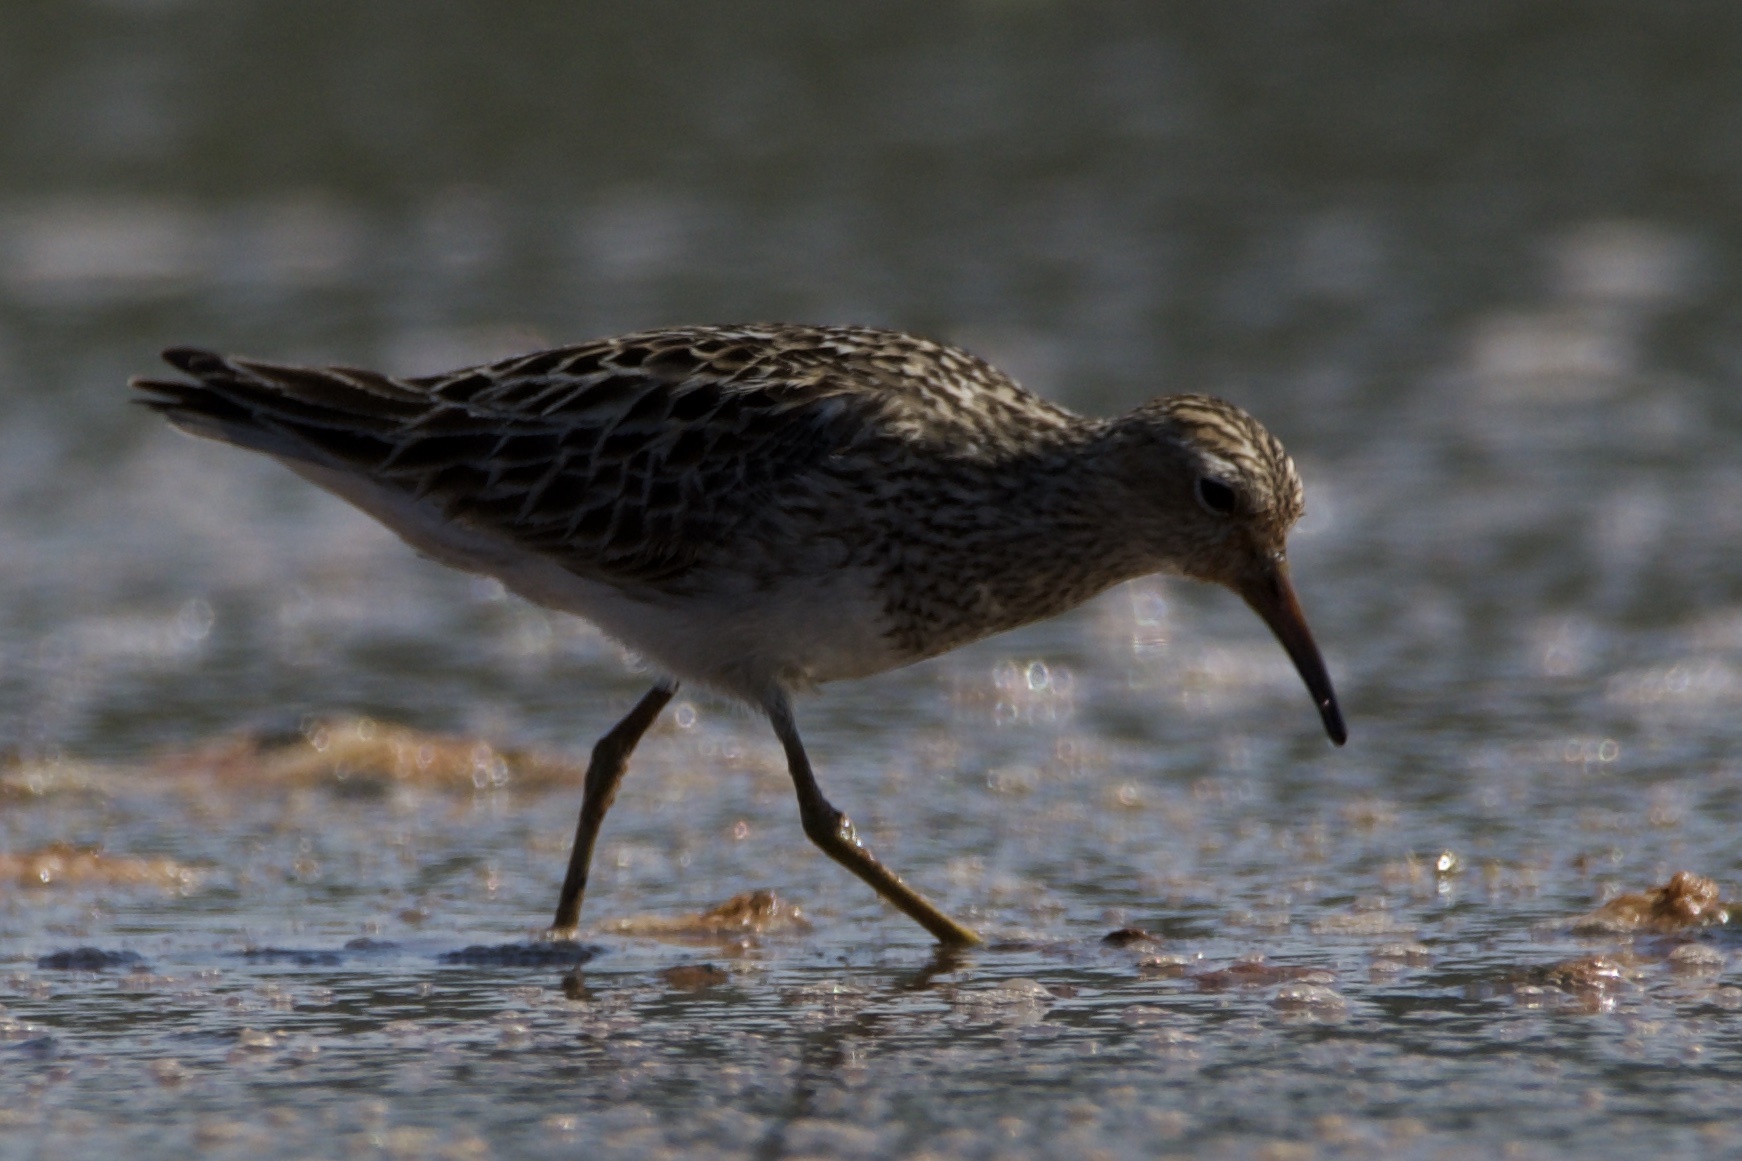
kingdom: Animalia
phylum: Chordata
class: Aves
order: Charadriiformes
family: Scolopacidae
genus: Calidris
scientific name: Calidris melanotos
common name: Pectoral sandpiper
